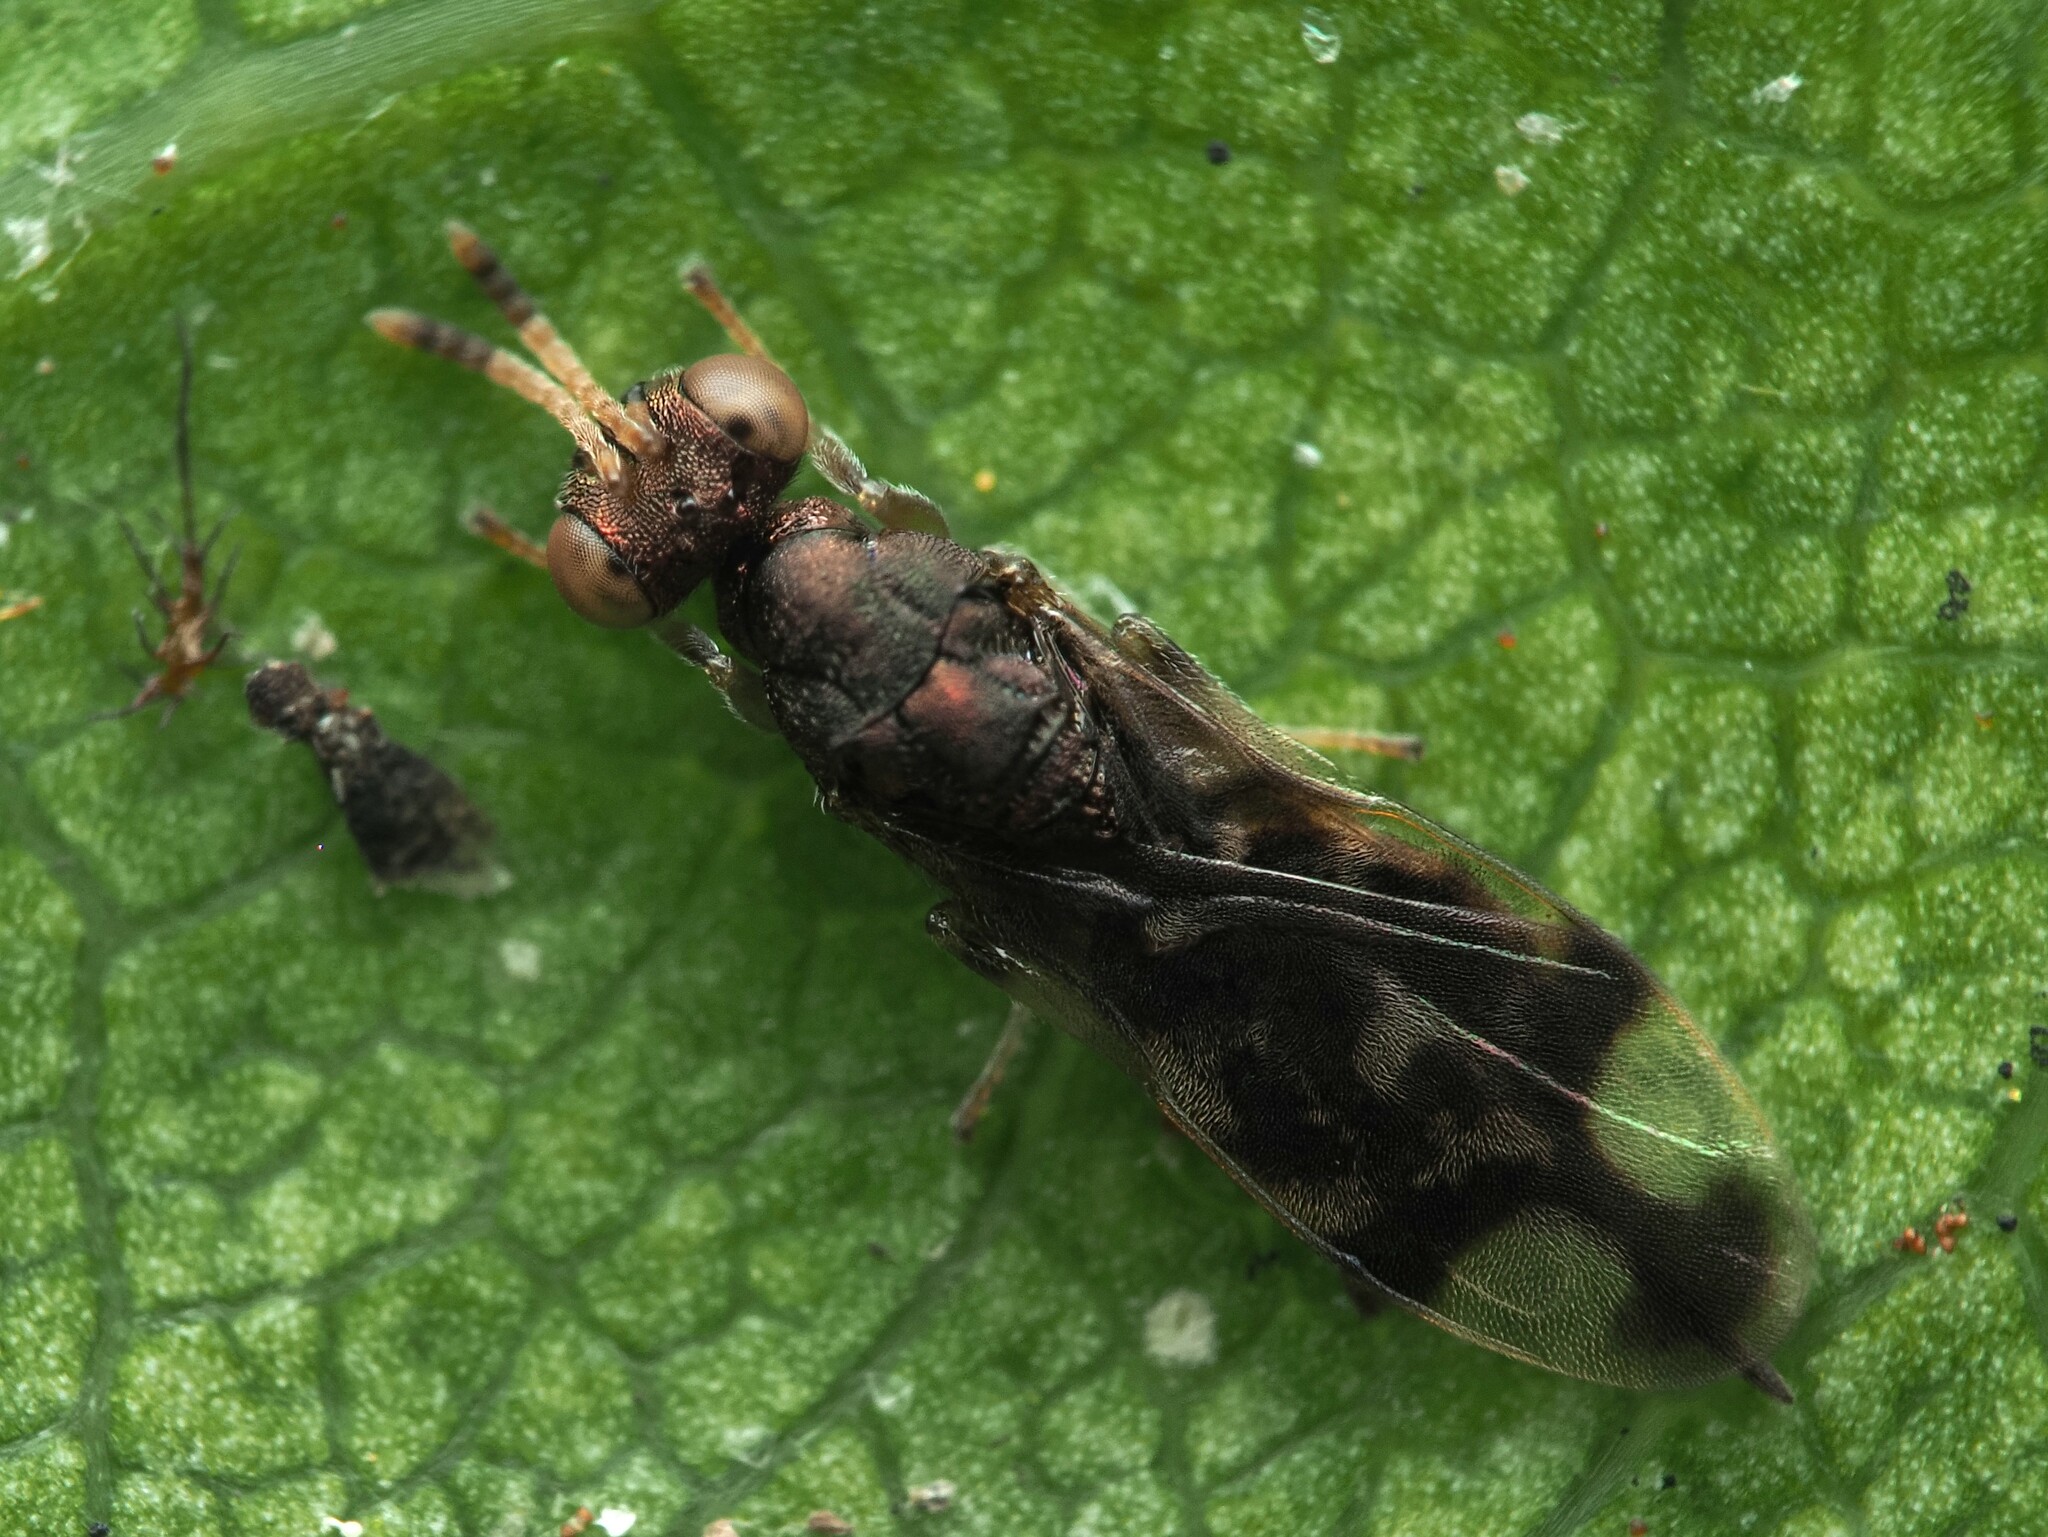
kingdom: Animalia
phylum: Arthropoda
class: Insecta
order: Hymenoptera
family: Pteromalidae
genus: Zeala
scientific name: Zeala walkerae
